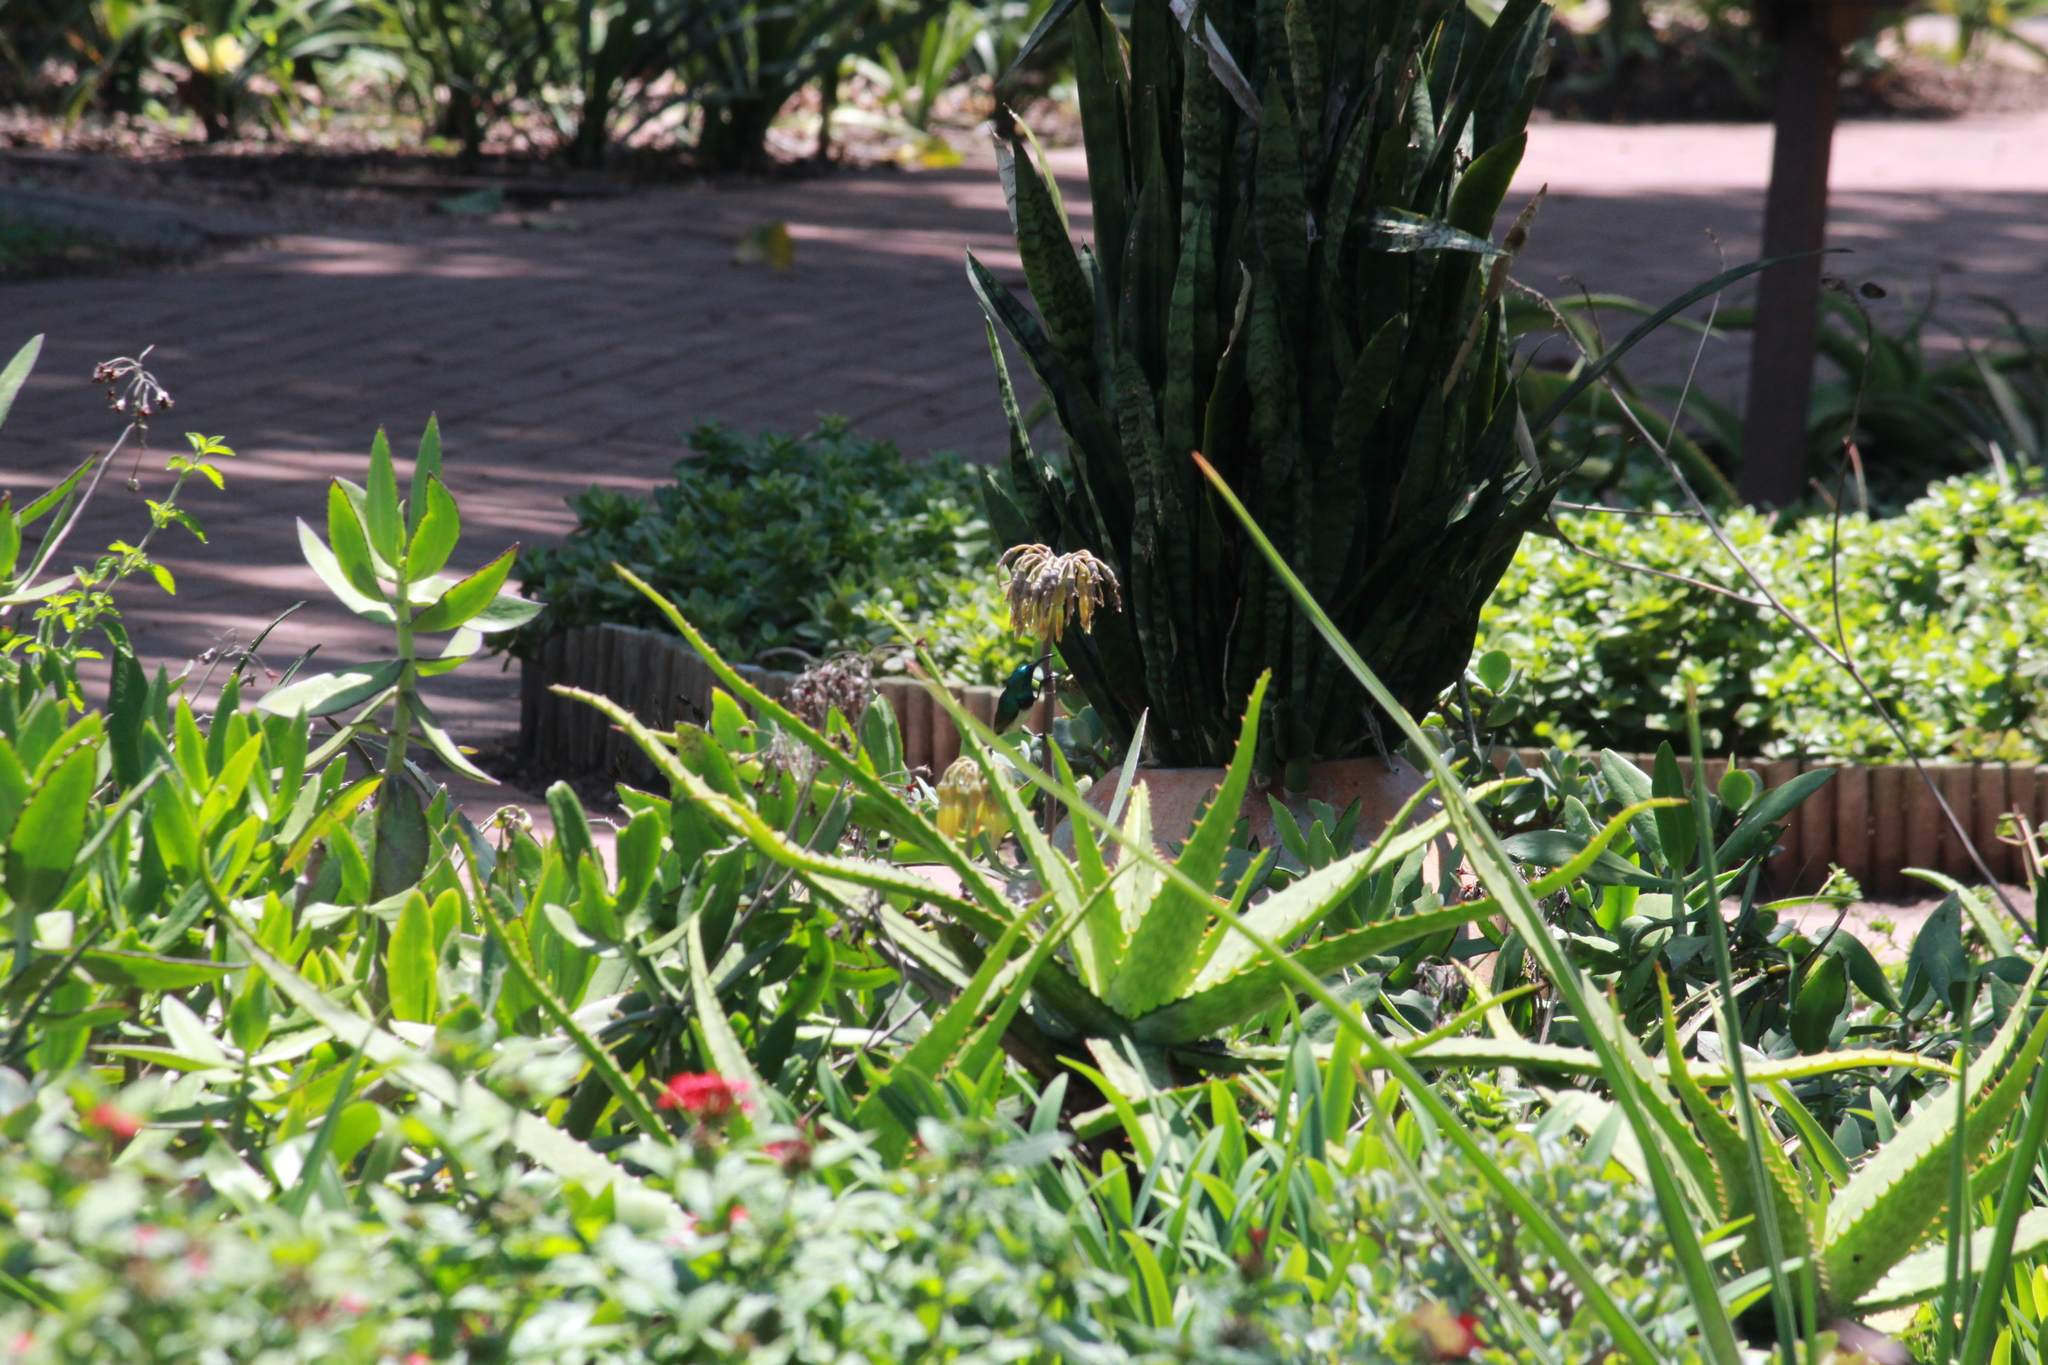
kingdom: Animalia
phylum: Chordata
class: Aves
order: Passeriformes
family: Nectariniidae
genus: Cinnyris
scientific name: Cinnyris talatala
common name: White-bellied sunbird
